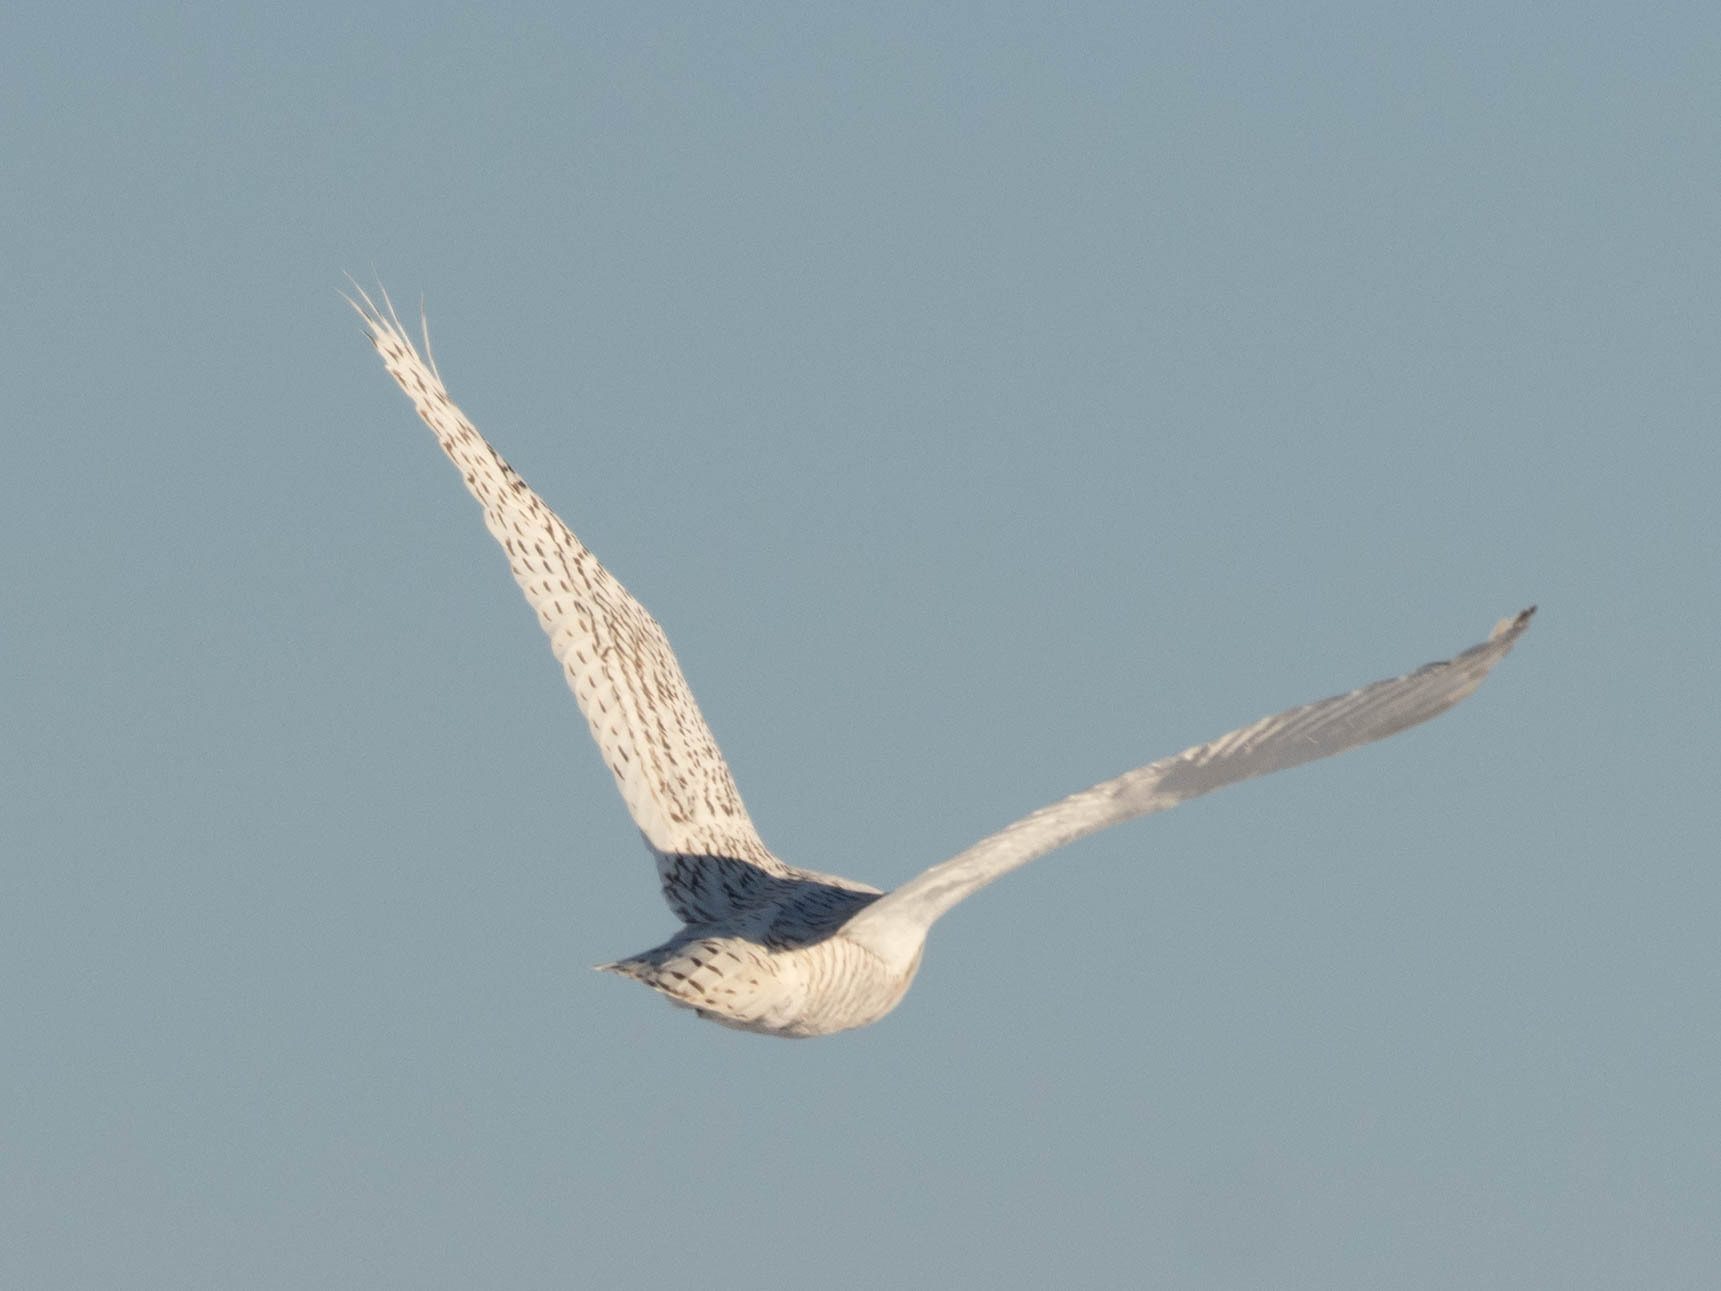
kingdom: Animalia
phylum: Chordata
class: Aves
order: Strigiformes
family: Strigidae
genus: Bubo
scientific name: Bubo scandiacus
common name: Snowy owl
